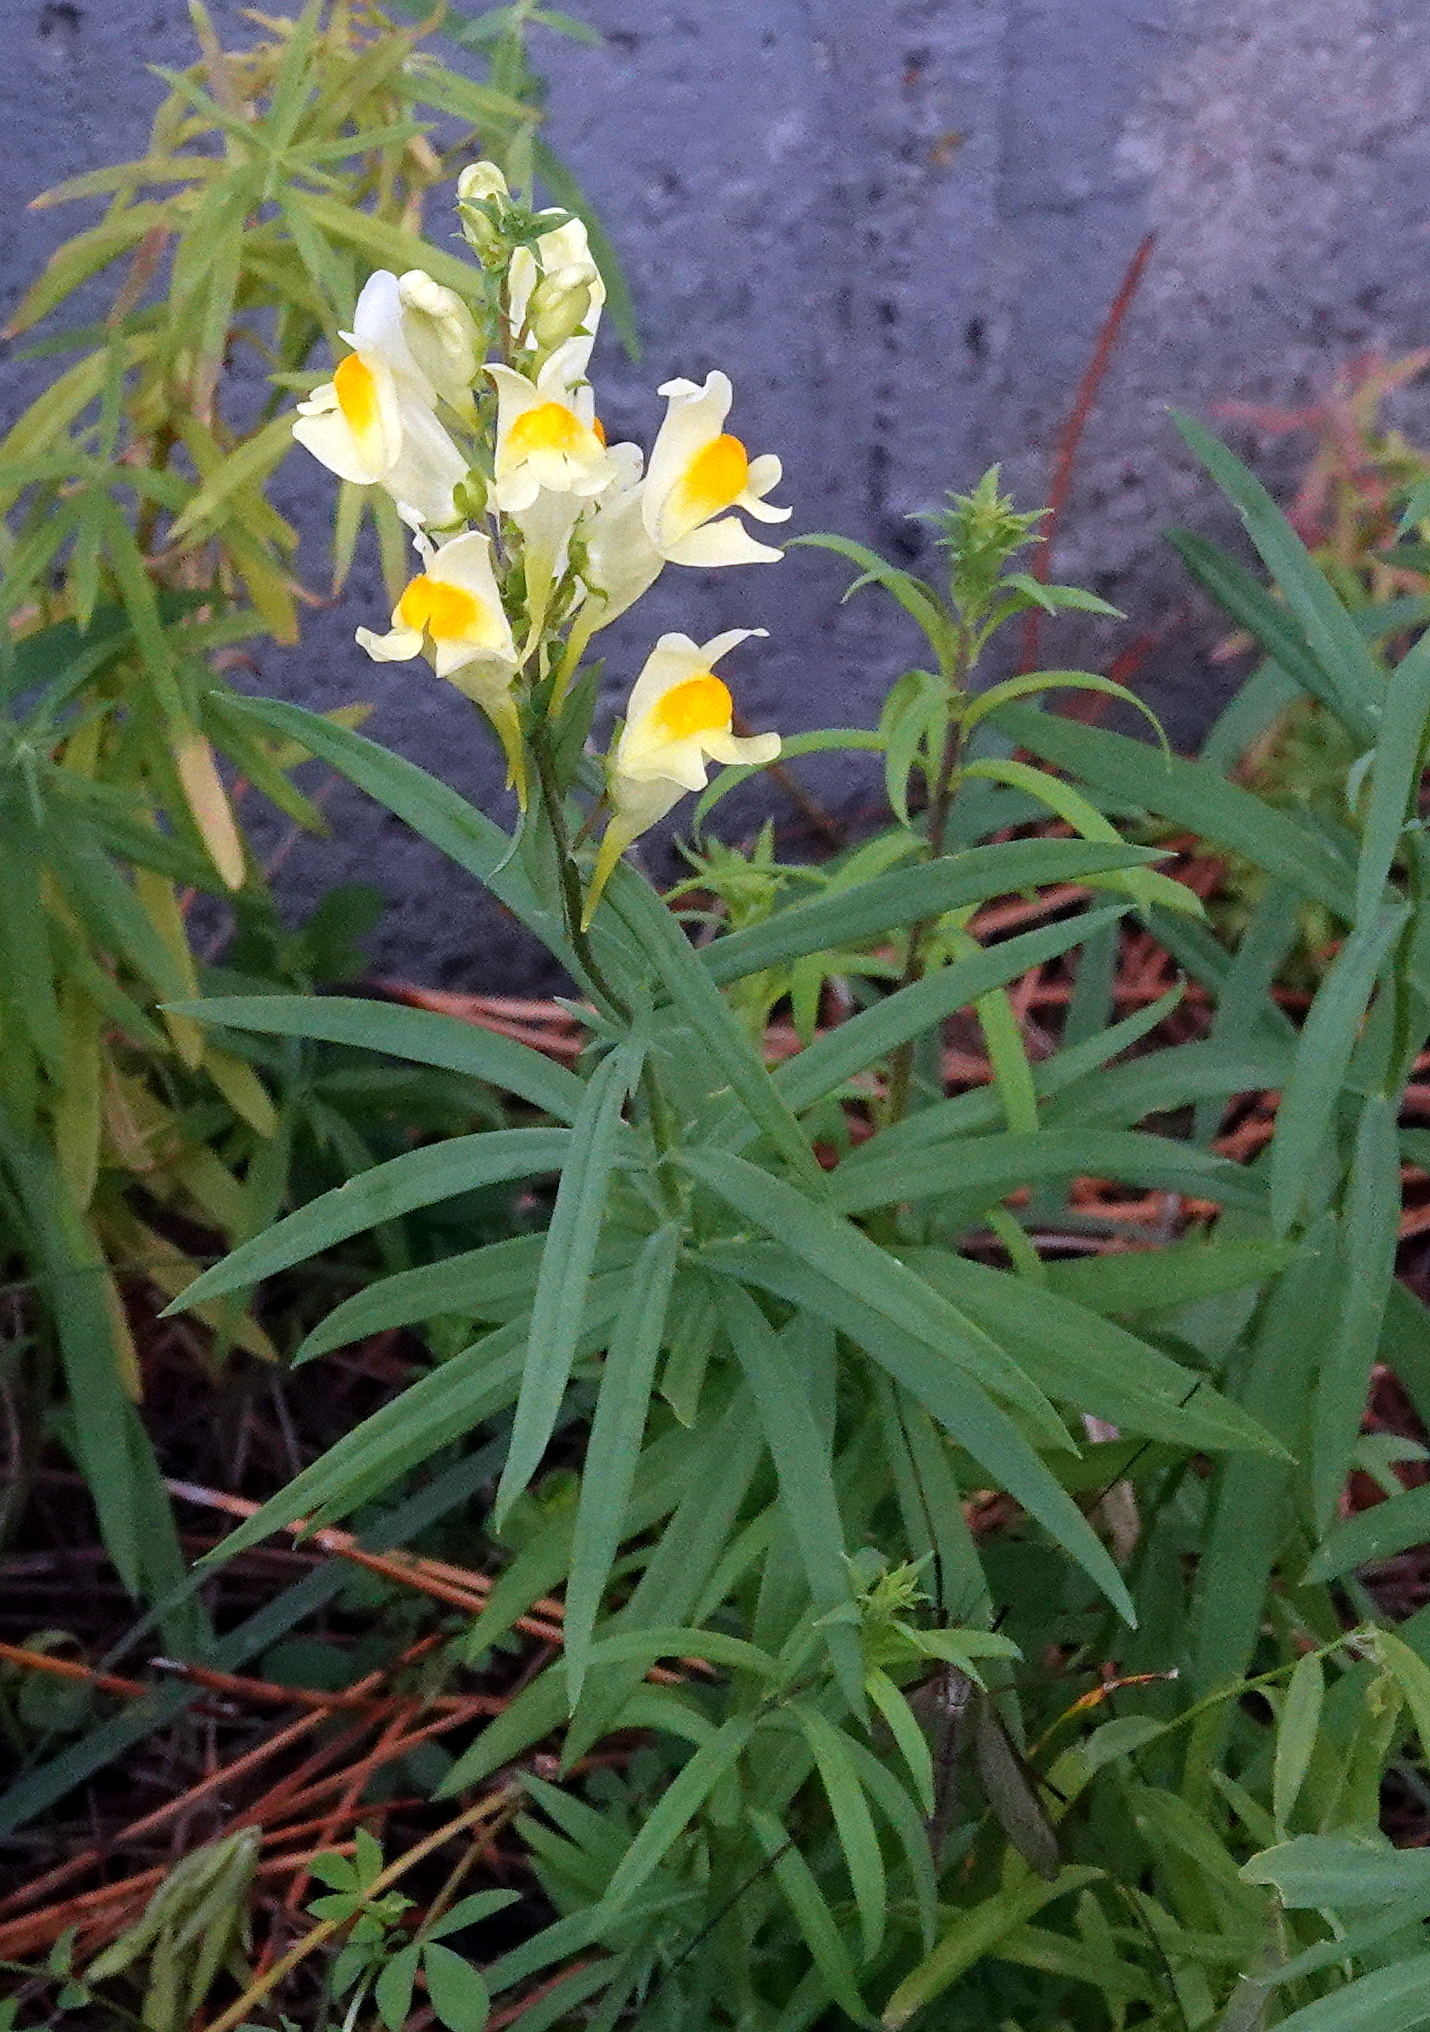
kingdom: Plantae
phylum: Tracheophyta
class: Magnoliopsida
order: Lamiales
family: Plantaginaceae
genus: Linaria
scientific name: Linaria vulgaris
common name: Butter and eggs
